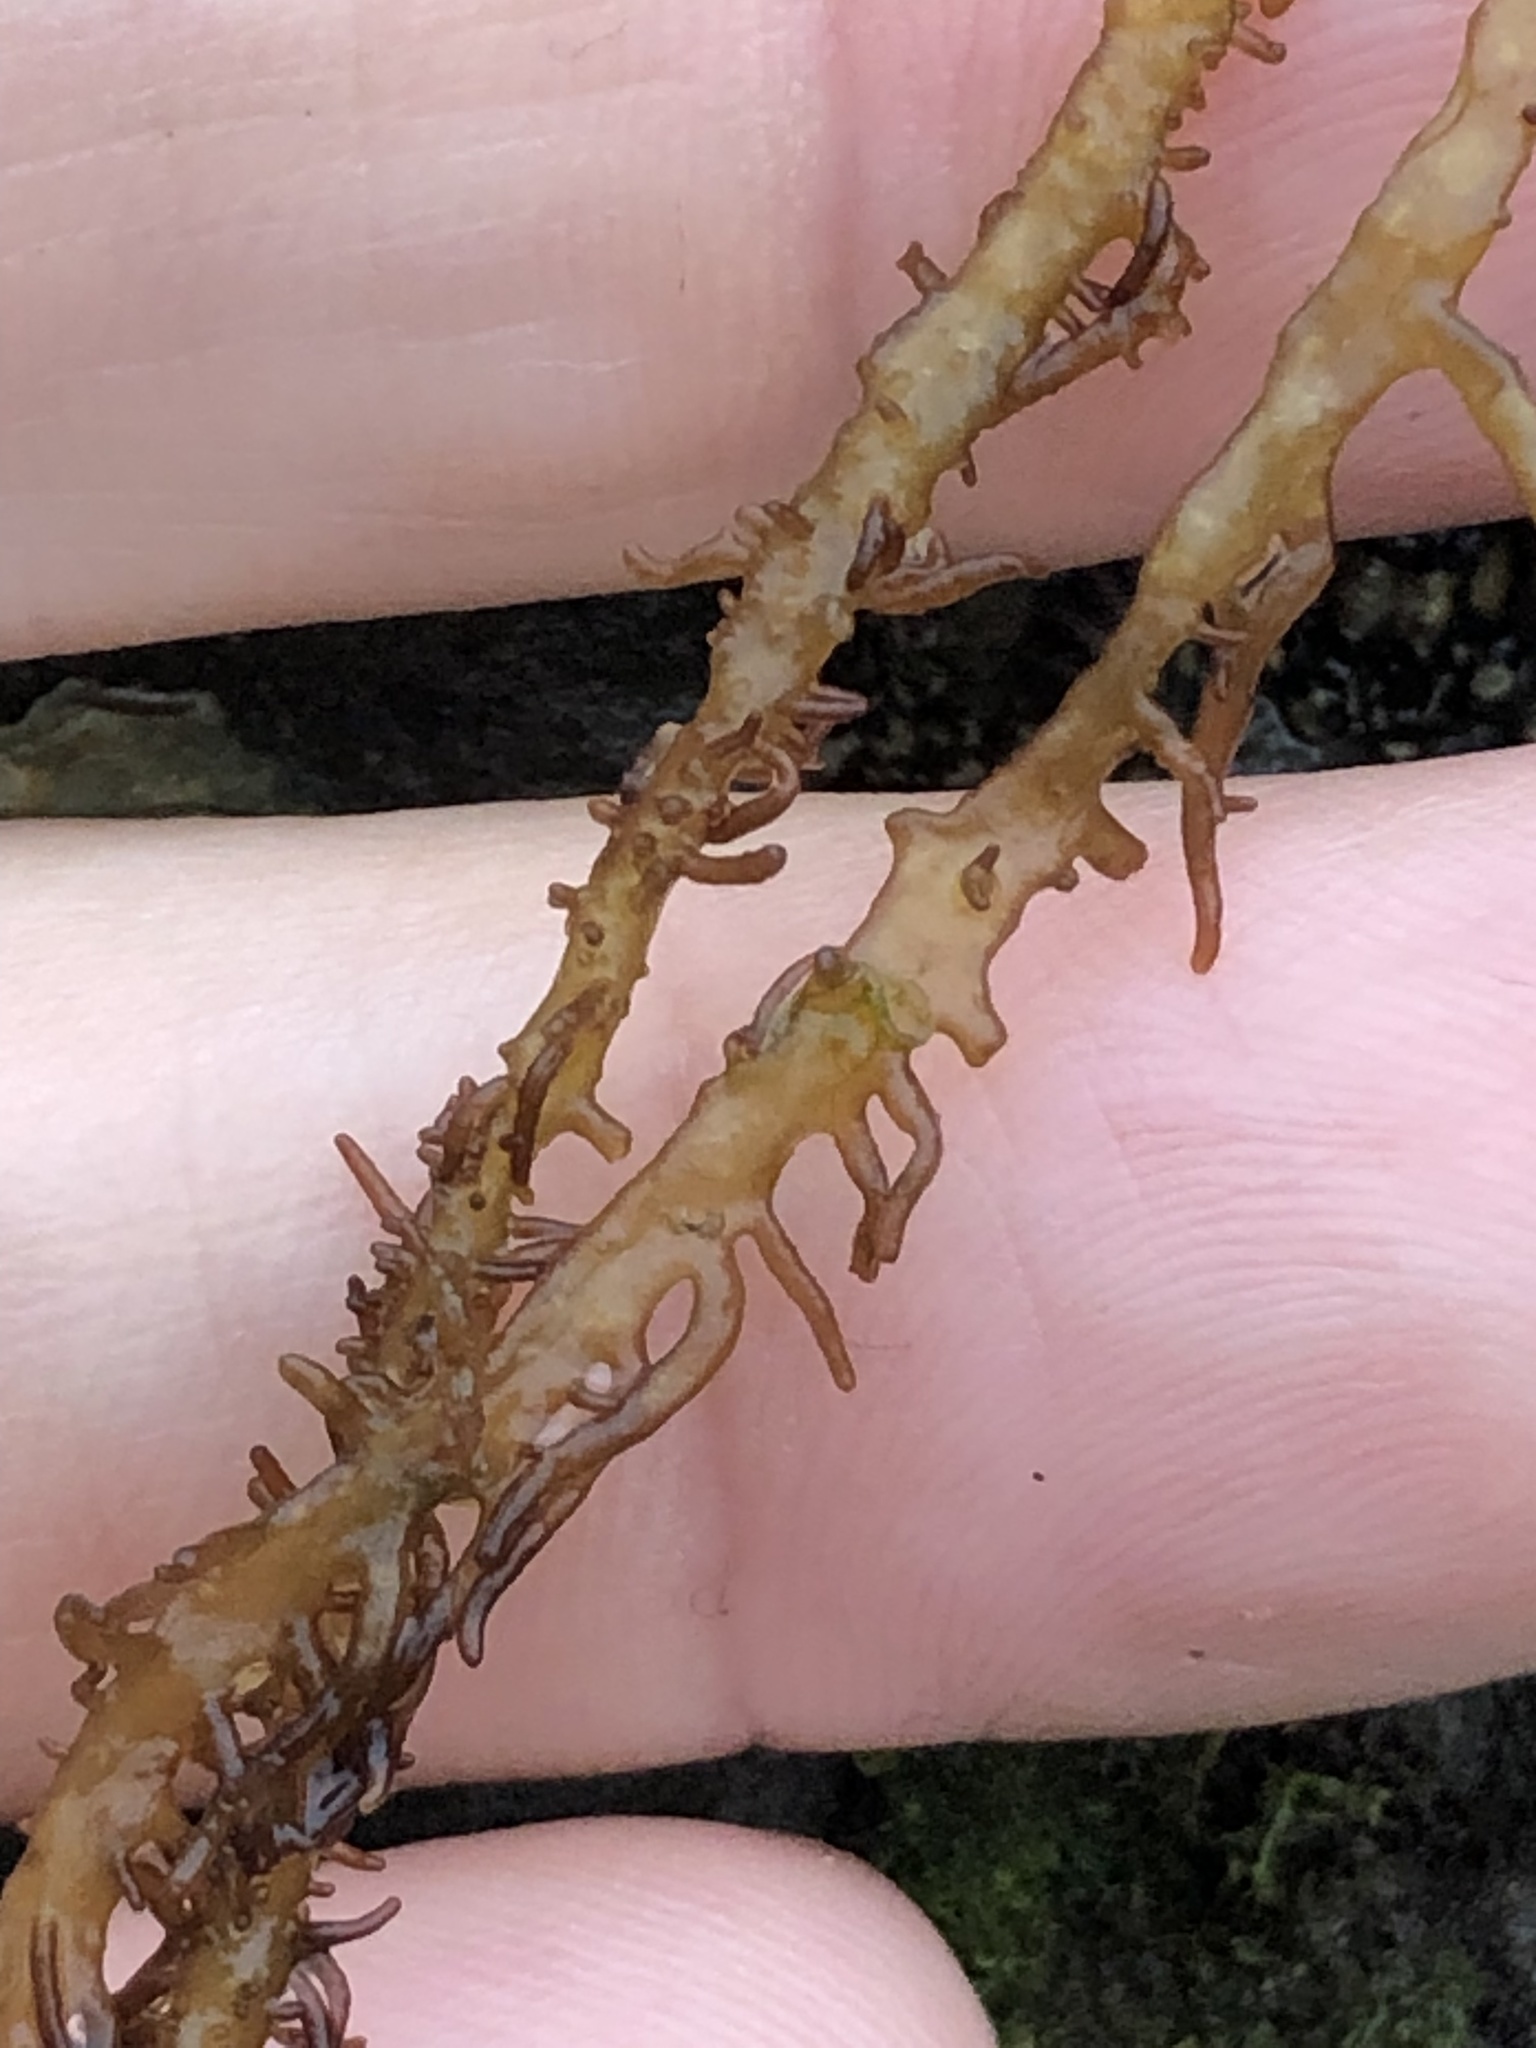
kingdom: Plantae
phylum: Rhodophyta
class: Florideophyceae
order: Nemaliales
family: Liagoraceae
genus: Cumagloia
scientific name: Cumagloia andersonii
